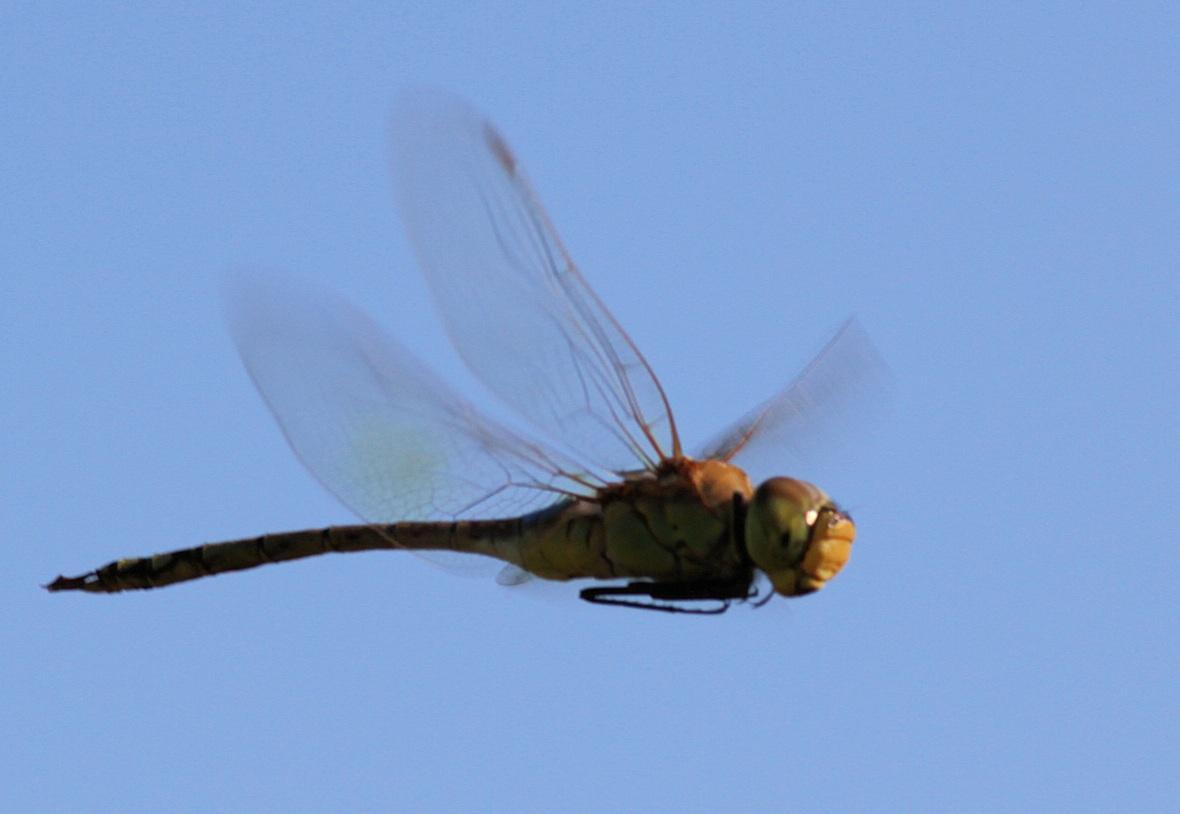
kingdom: Animalia
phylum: Arthropoda
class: Insecta
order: Odonata
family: Aeshnidae
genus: Anax
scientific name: Anax ephippiger
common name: Vagrant emperor
